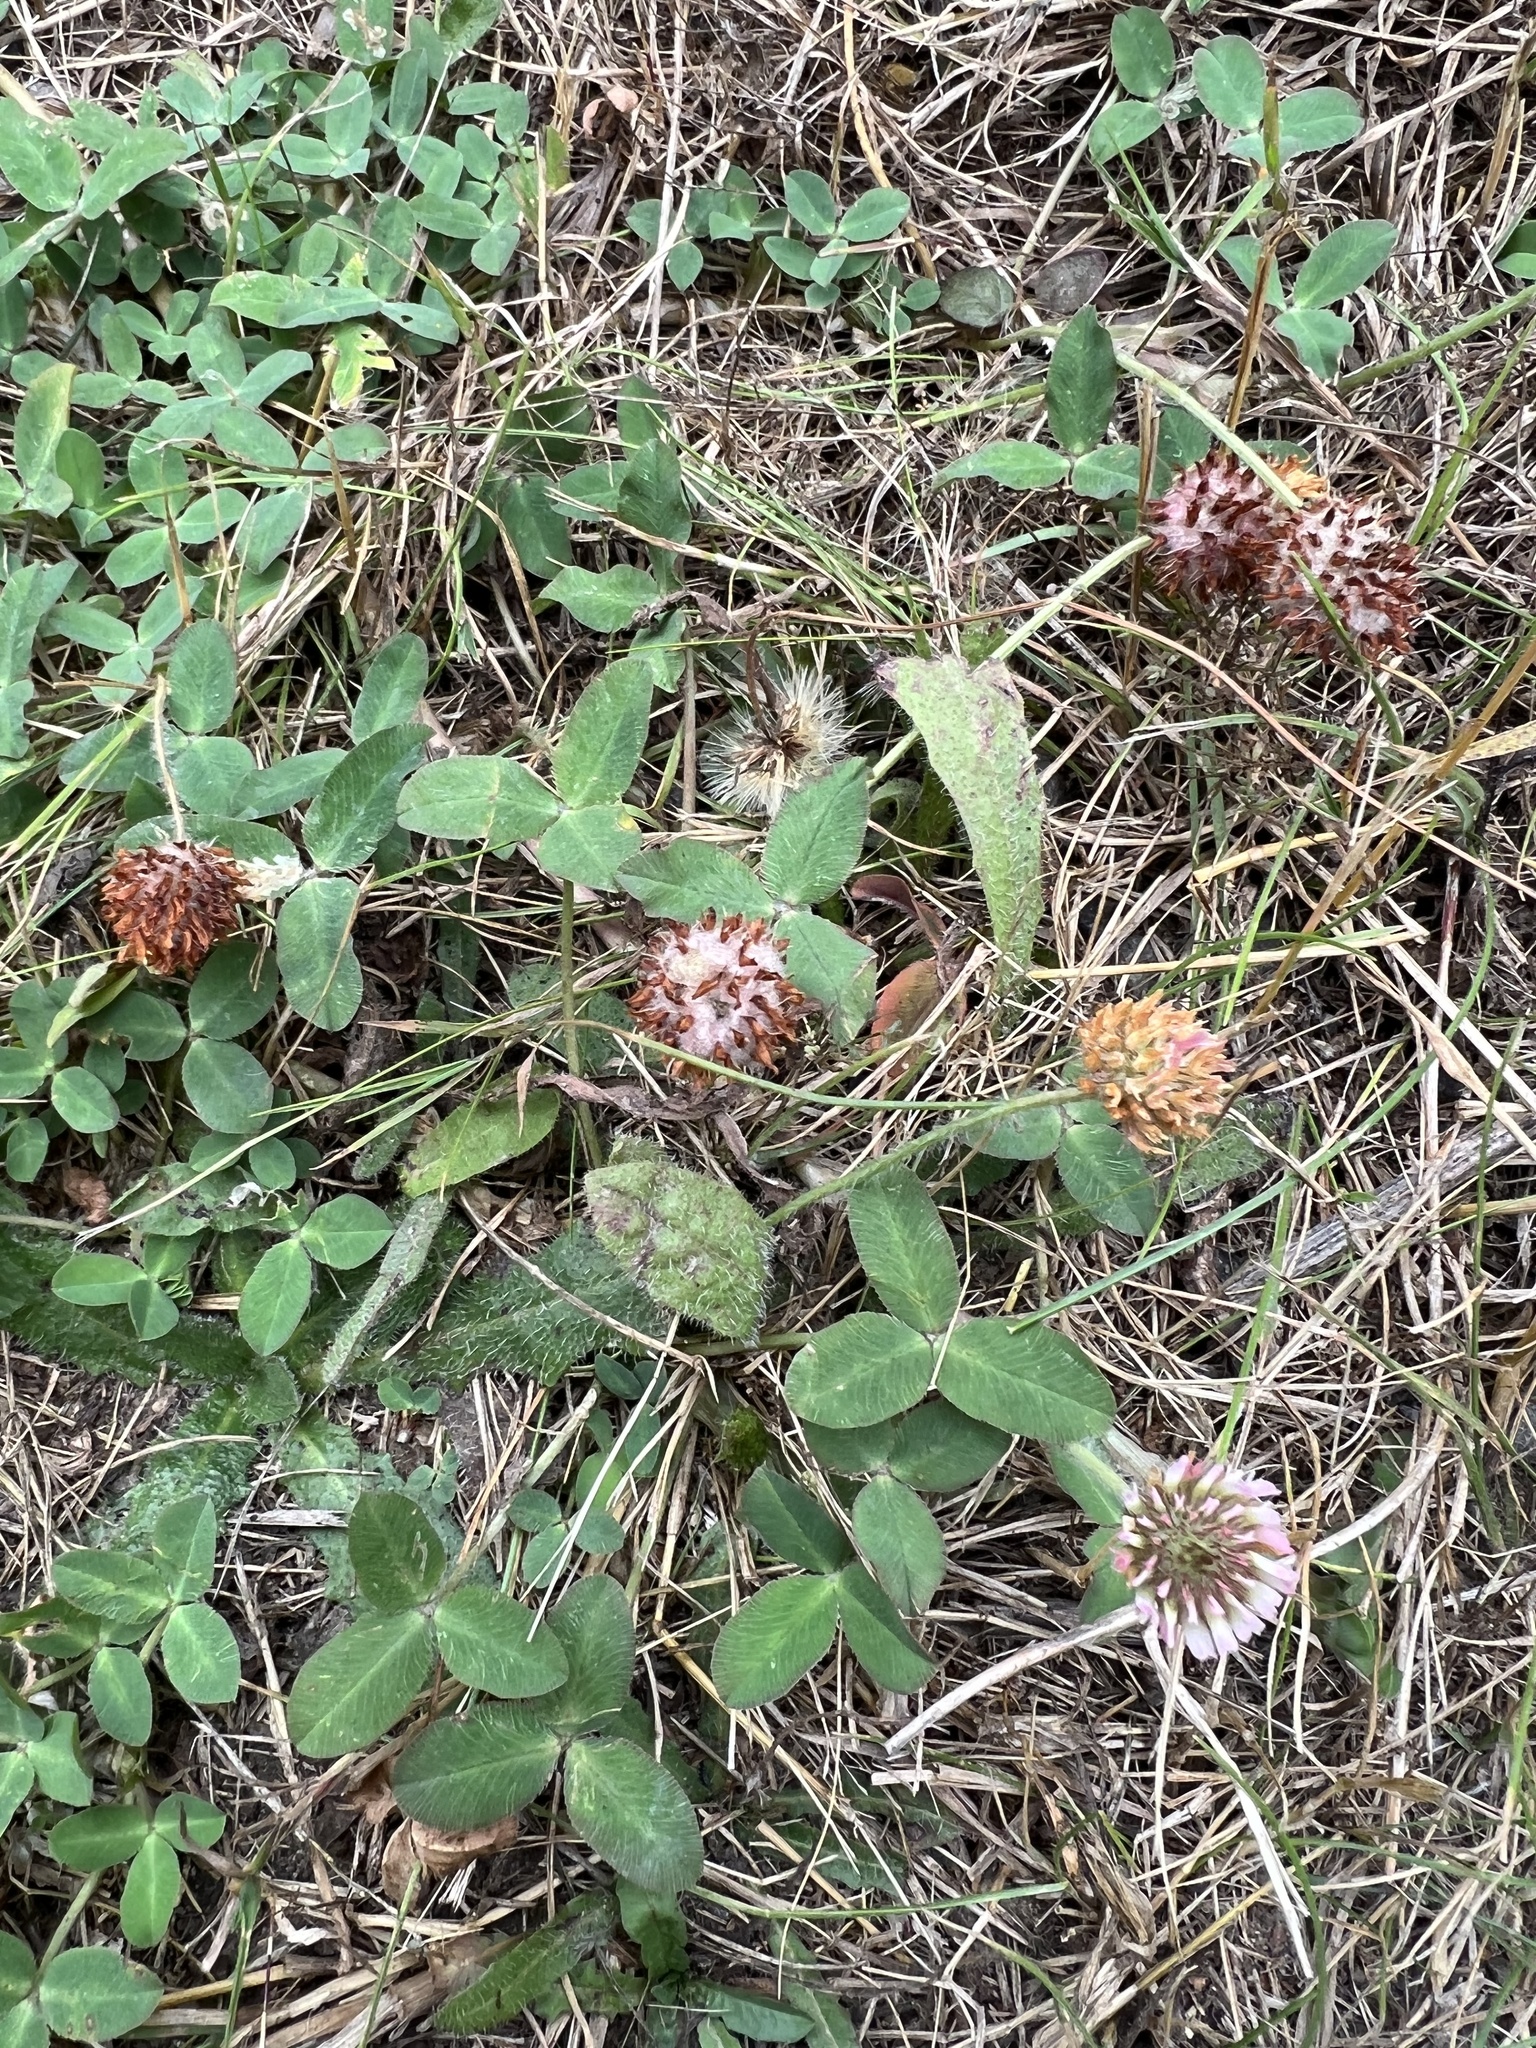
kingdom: Plantae
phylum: Tracheophyta
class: Magnoliopsida
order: Fabales
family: Fabaceae
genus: Trifolium
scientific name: Trifolium fragiferum
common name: Strawberry clover
